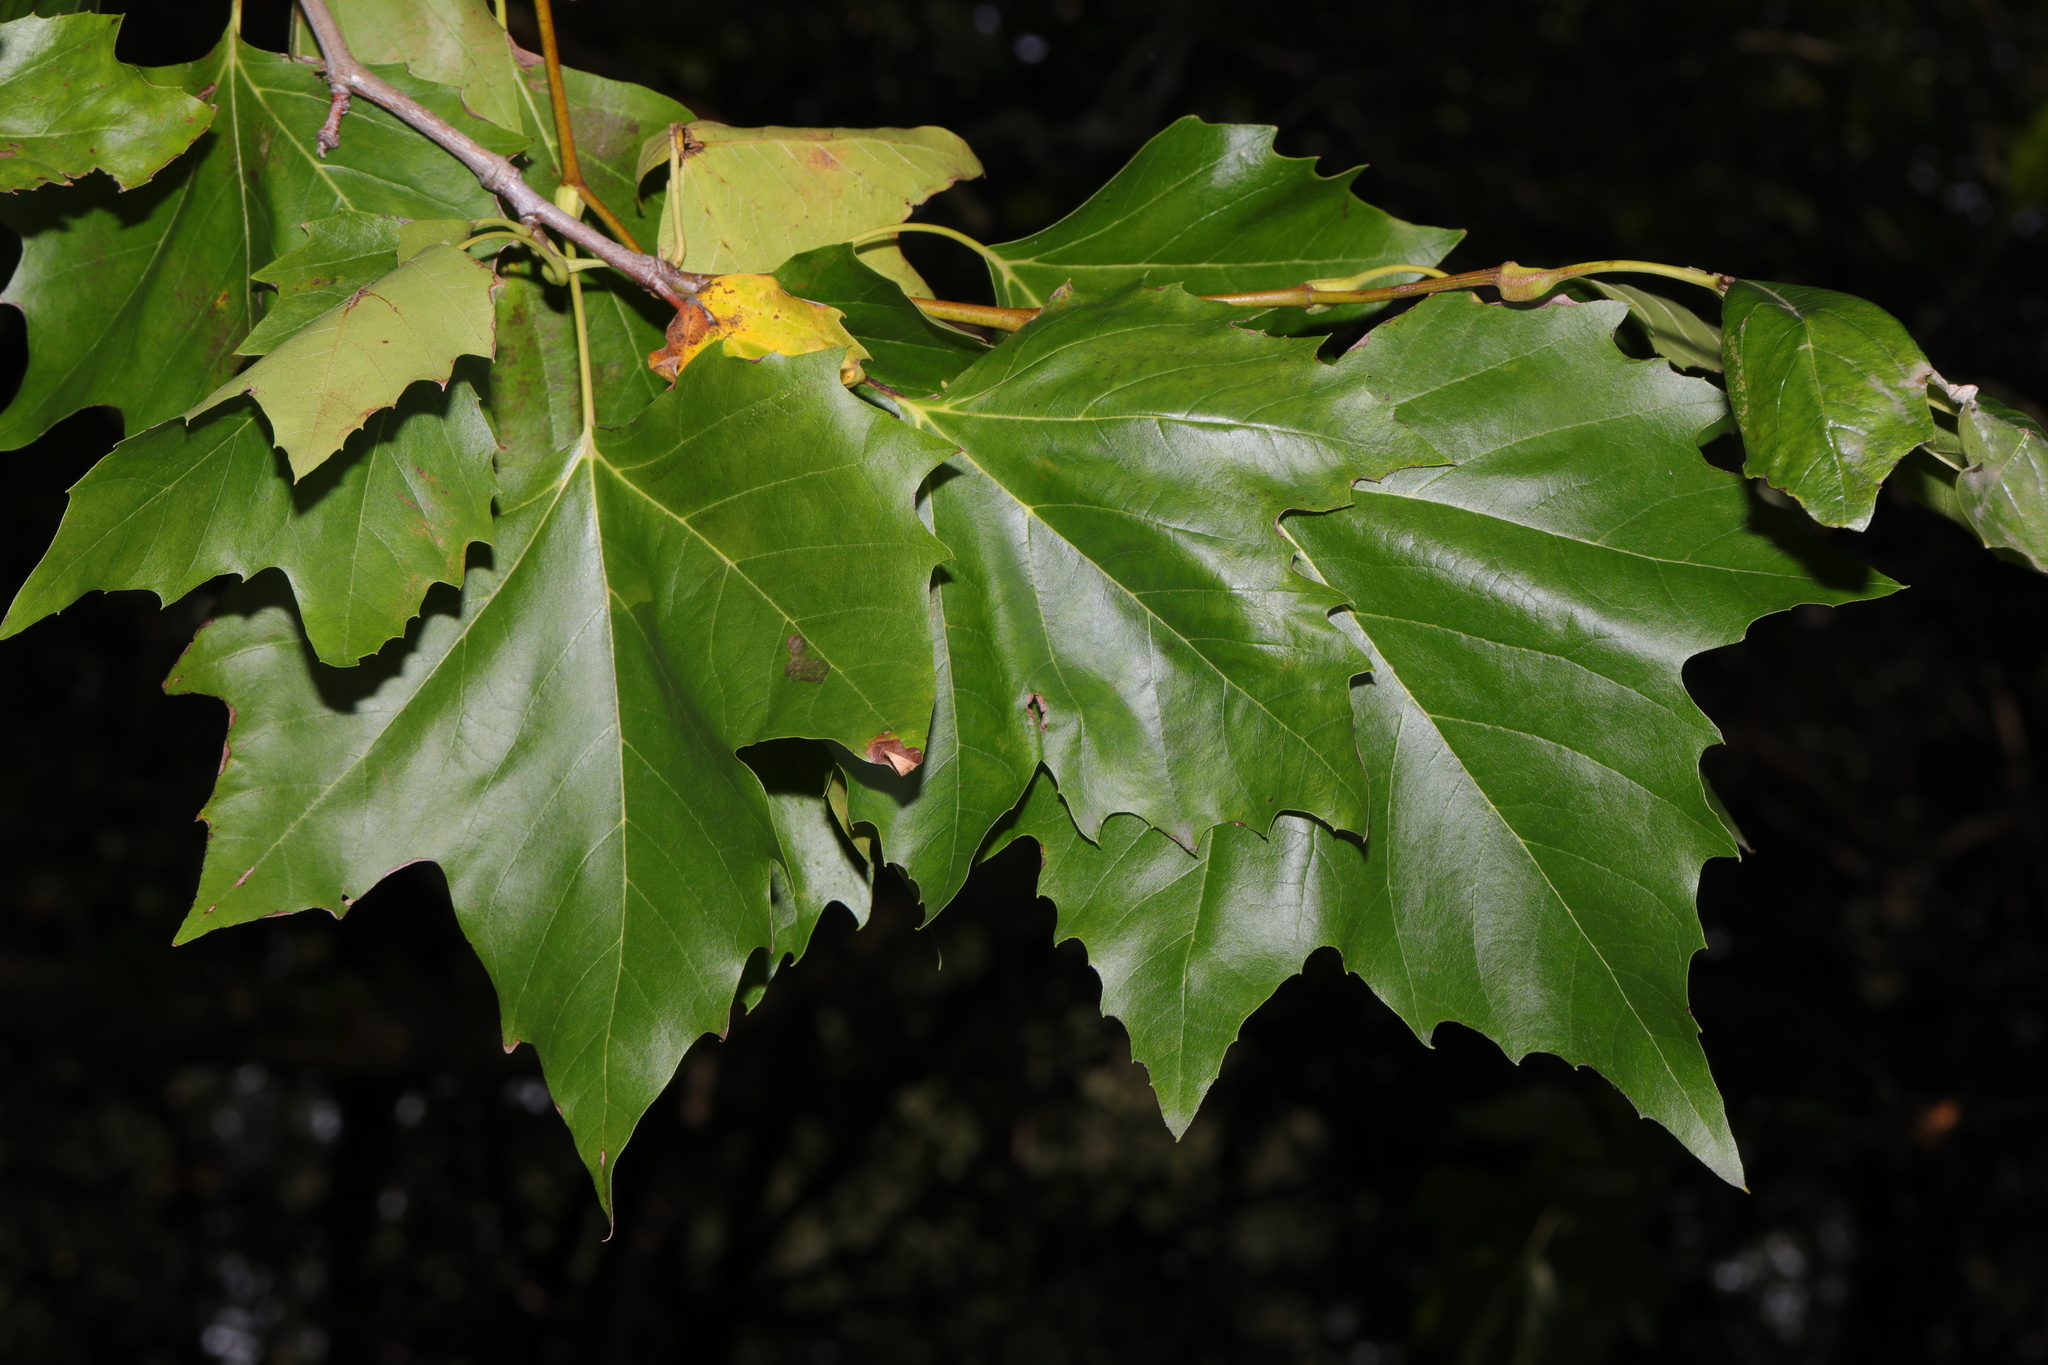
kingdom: Plantae
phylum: Tracheophyta
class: Magnoliopsida
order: Proteales
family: Platanaceae
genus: Platanus
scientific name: Platanus hispanica
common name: London plane
